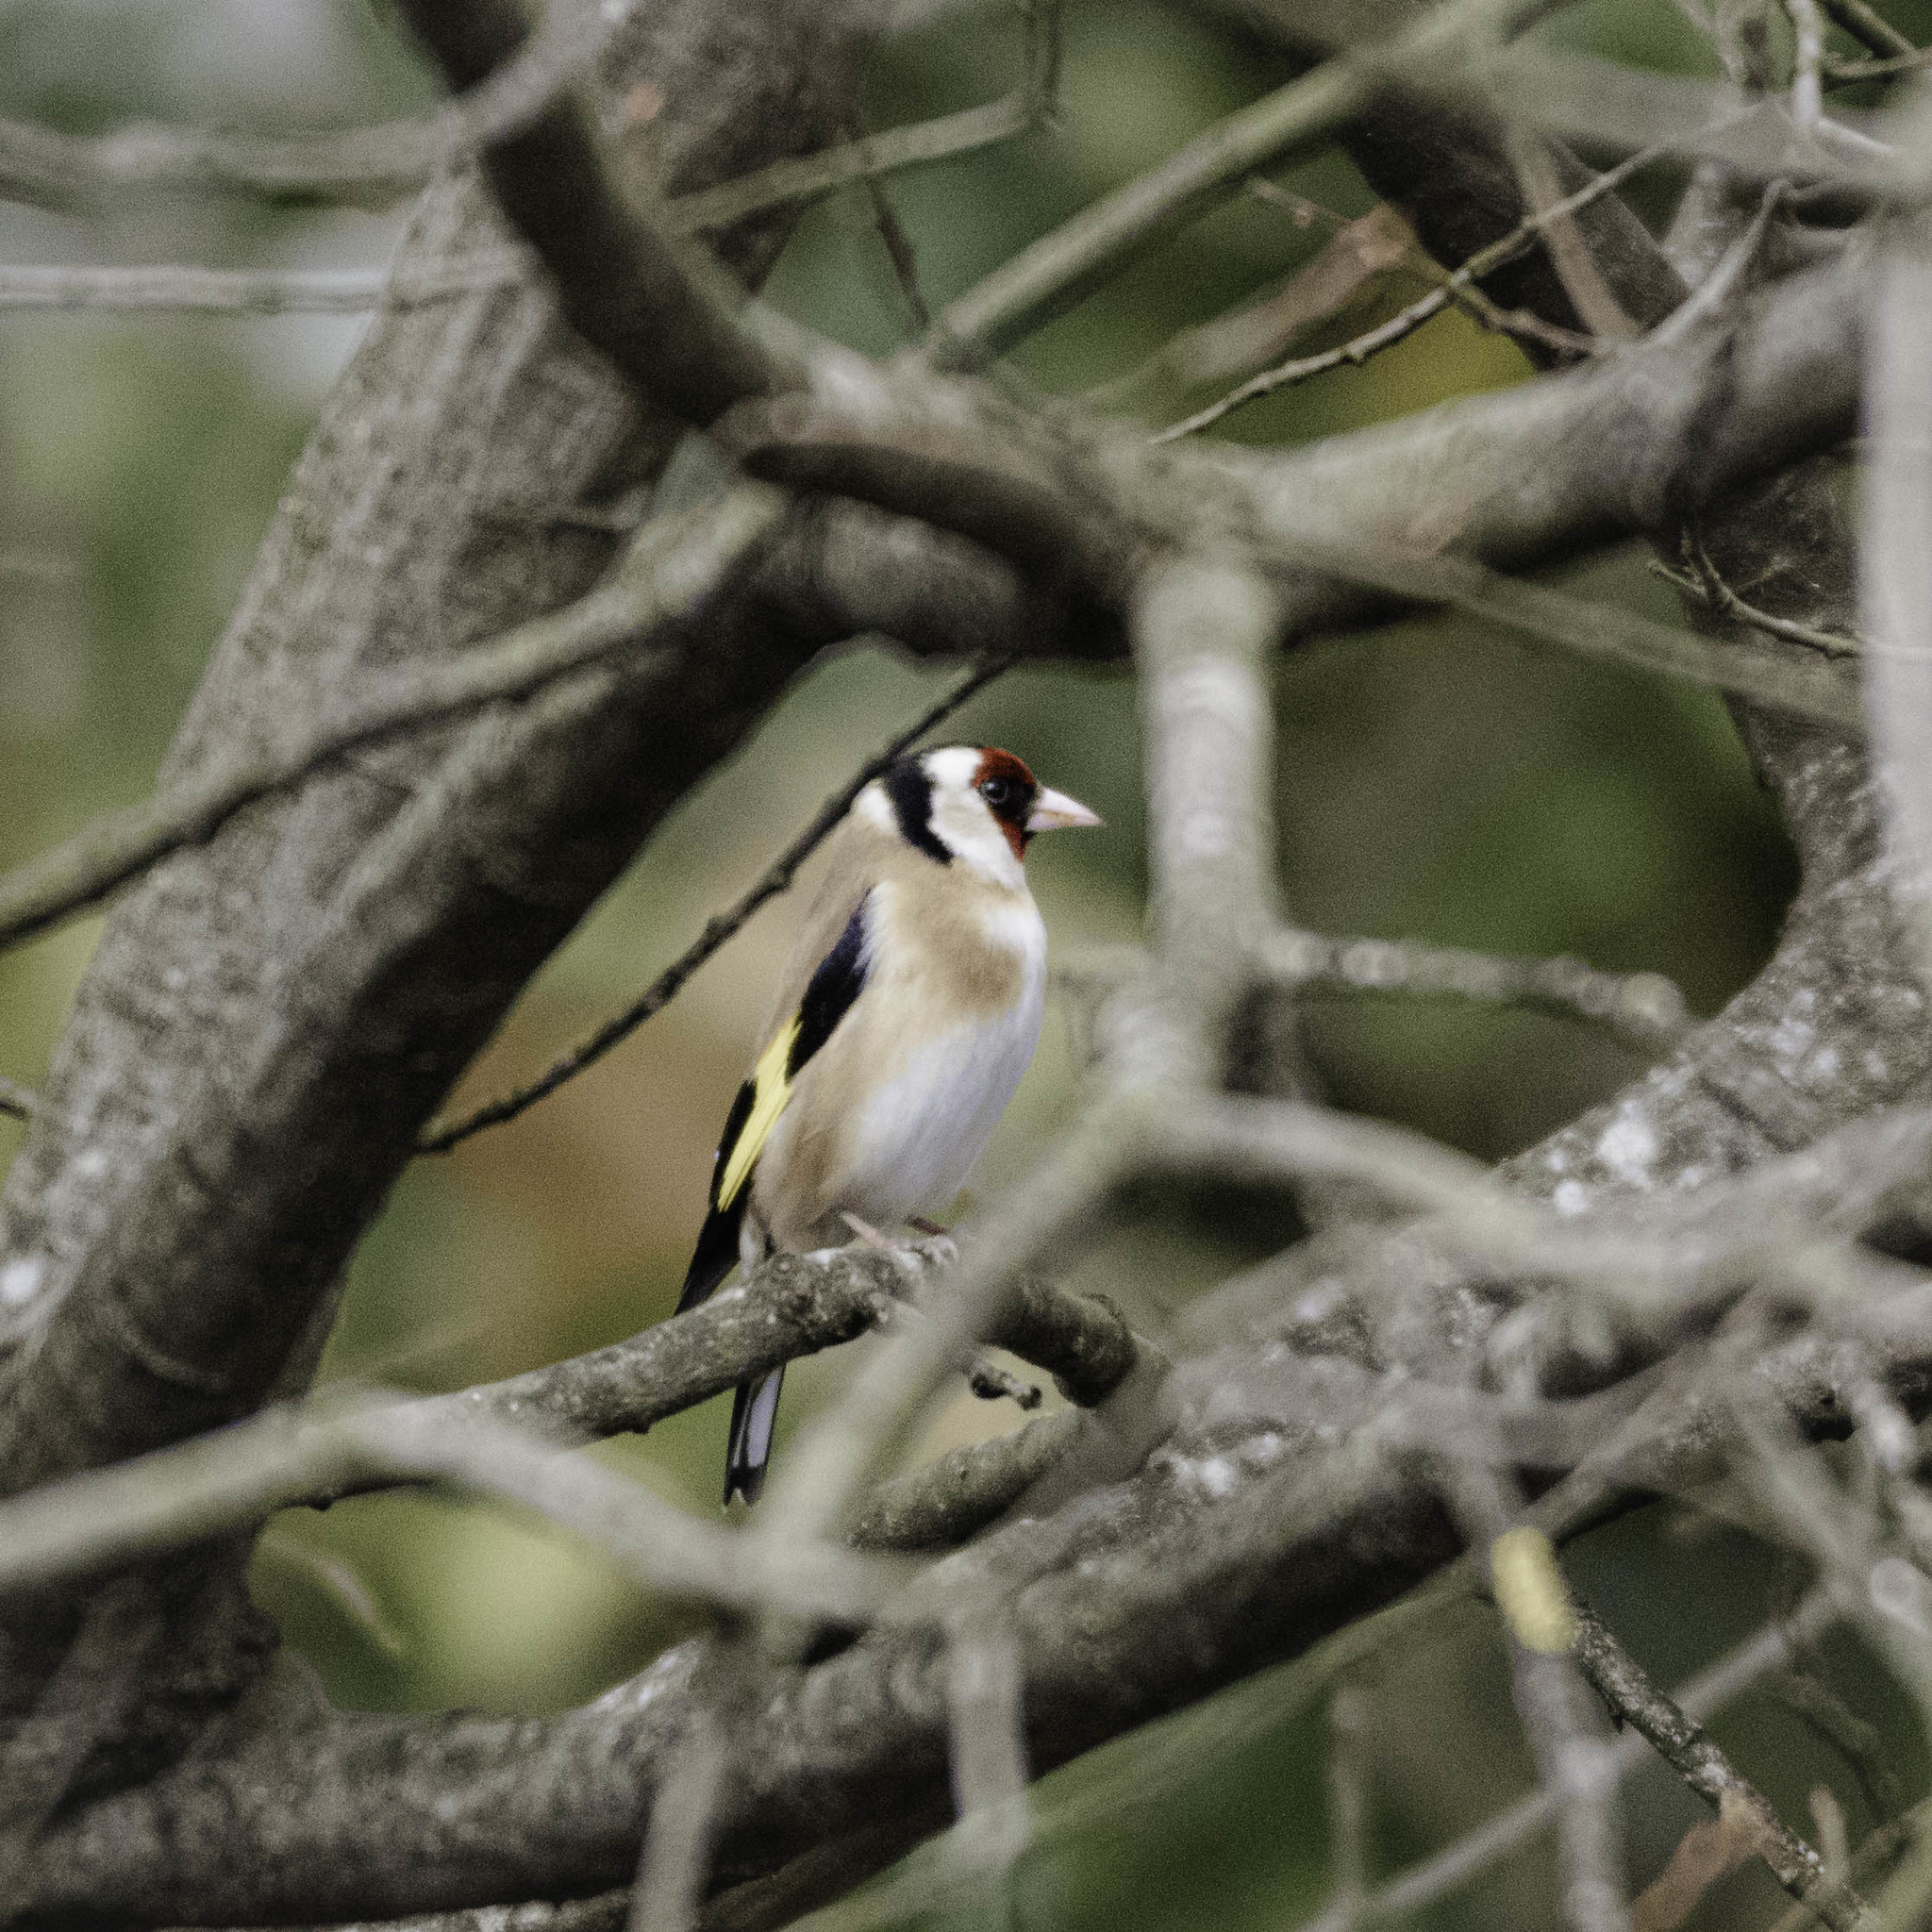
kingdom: Animalia
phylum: Chordata
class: Aves
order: Passeriformes
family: Fringillidae
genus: Carduelis
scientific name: Carduelis carduelis
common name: European goldfinch
